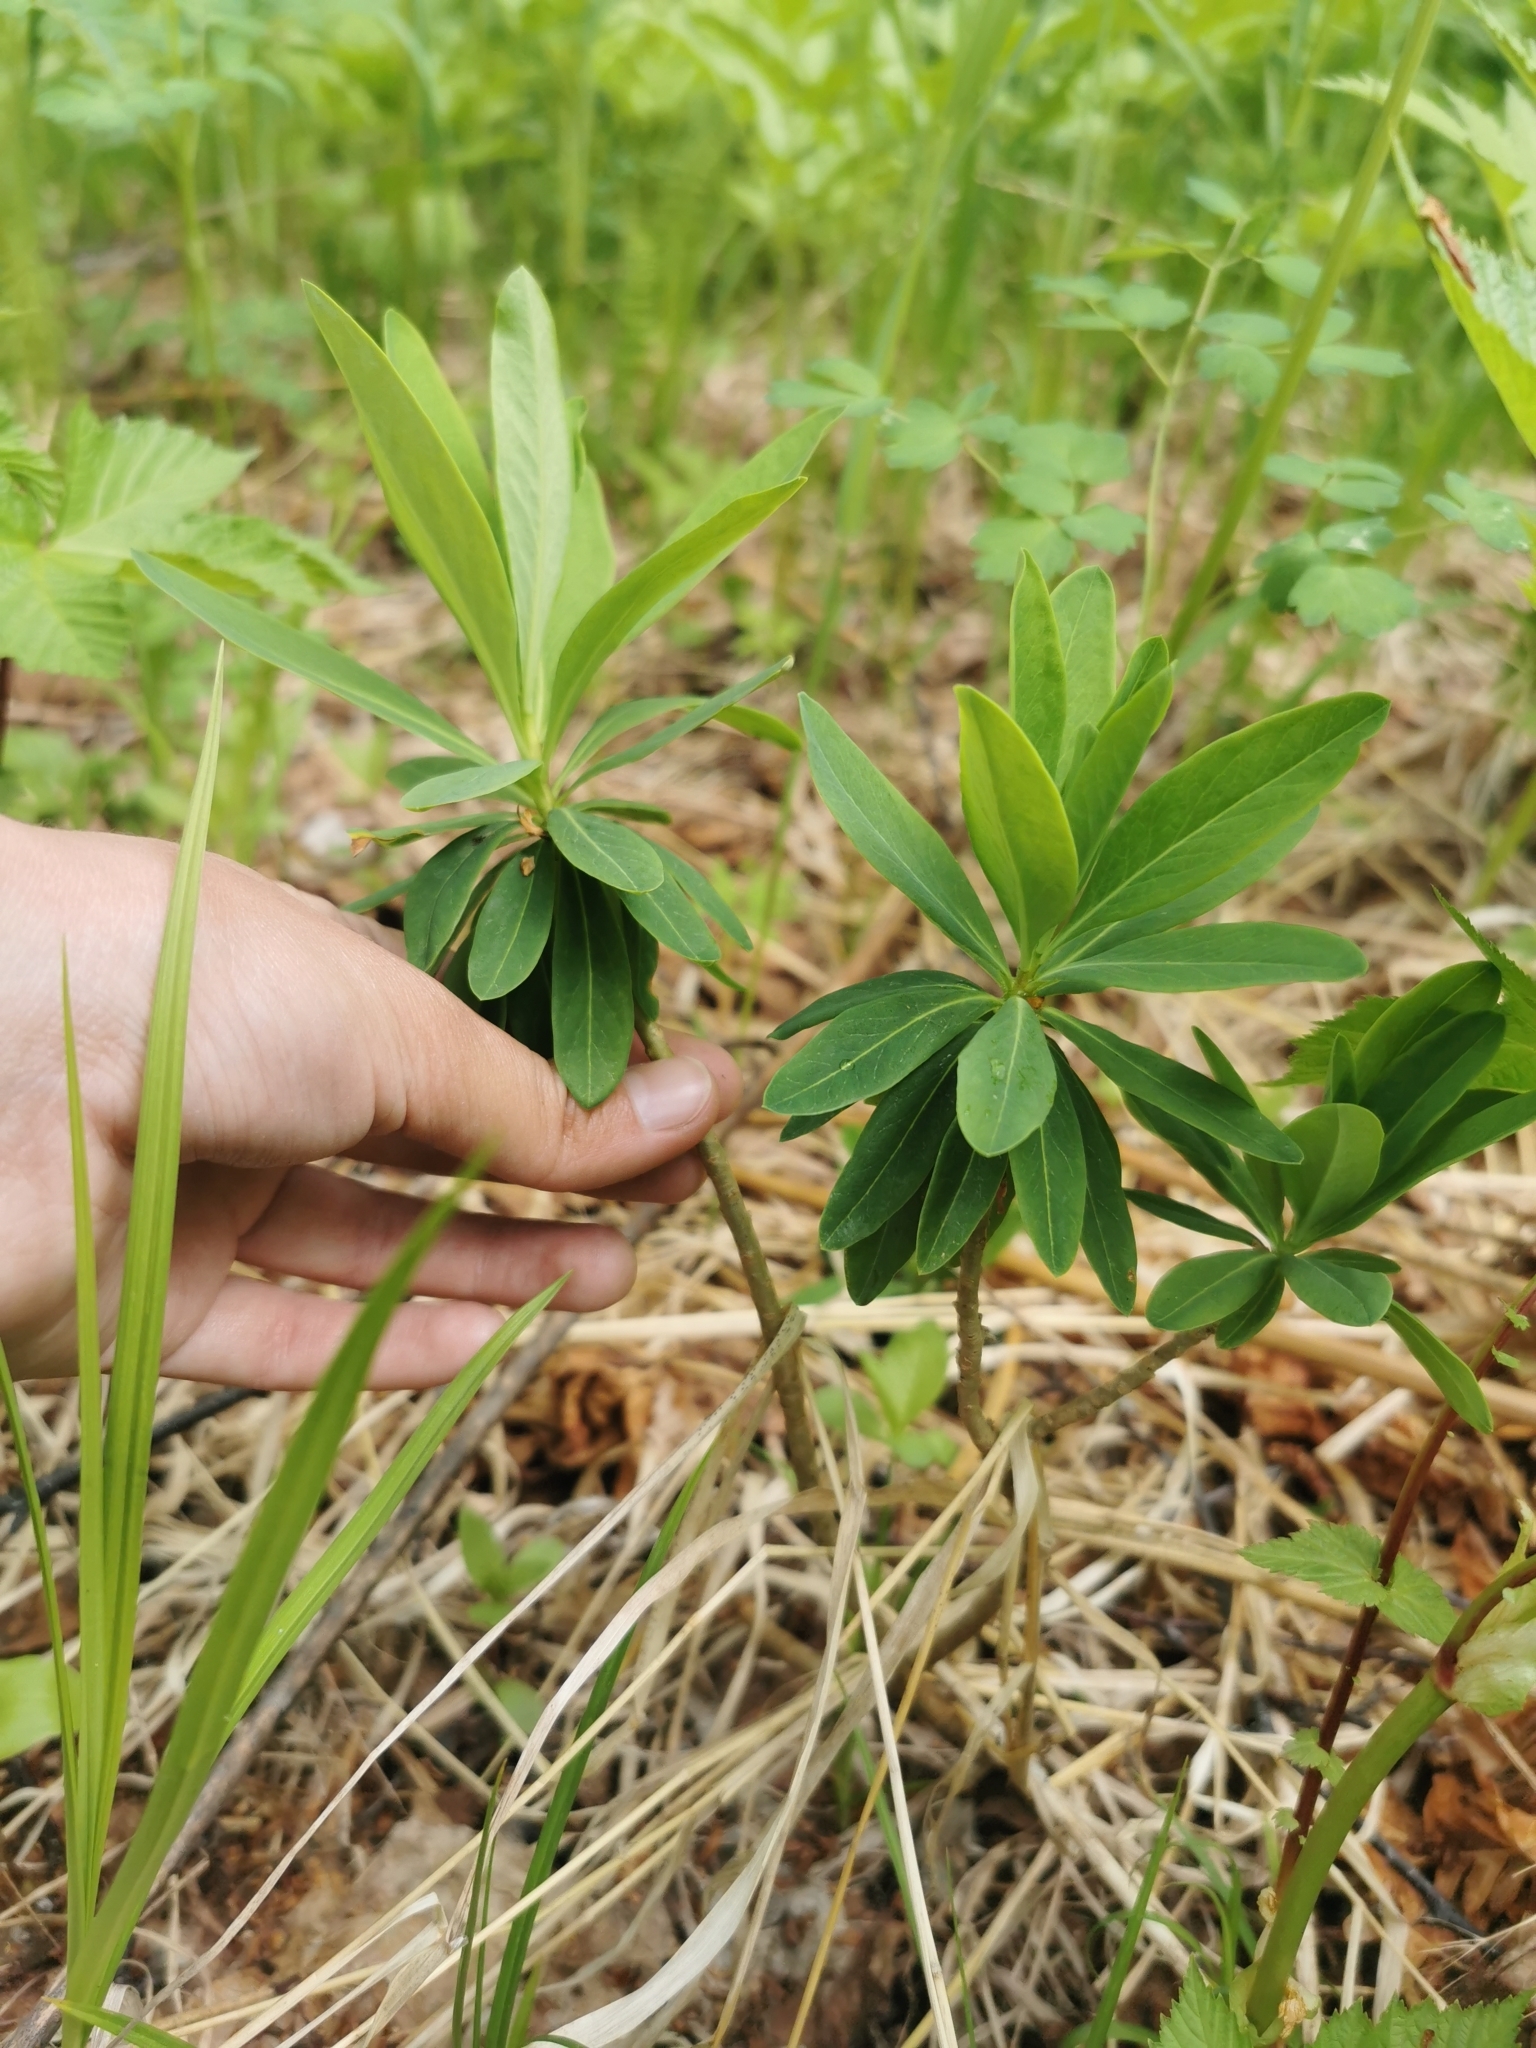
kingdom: Plantae
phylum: Tracheophyta
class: Magnoliopsida
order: Malvales
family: Thymelaeaceae
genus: Daphne
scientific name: Daphne kamtschatica
